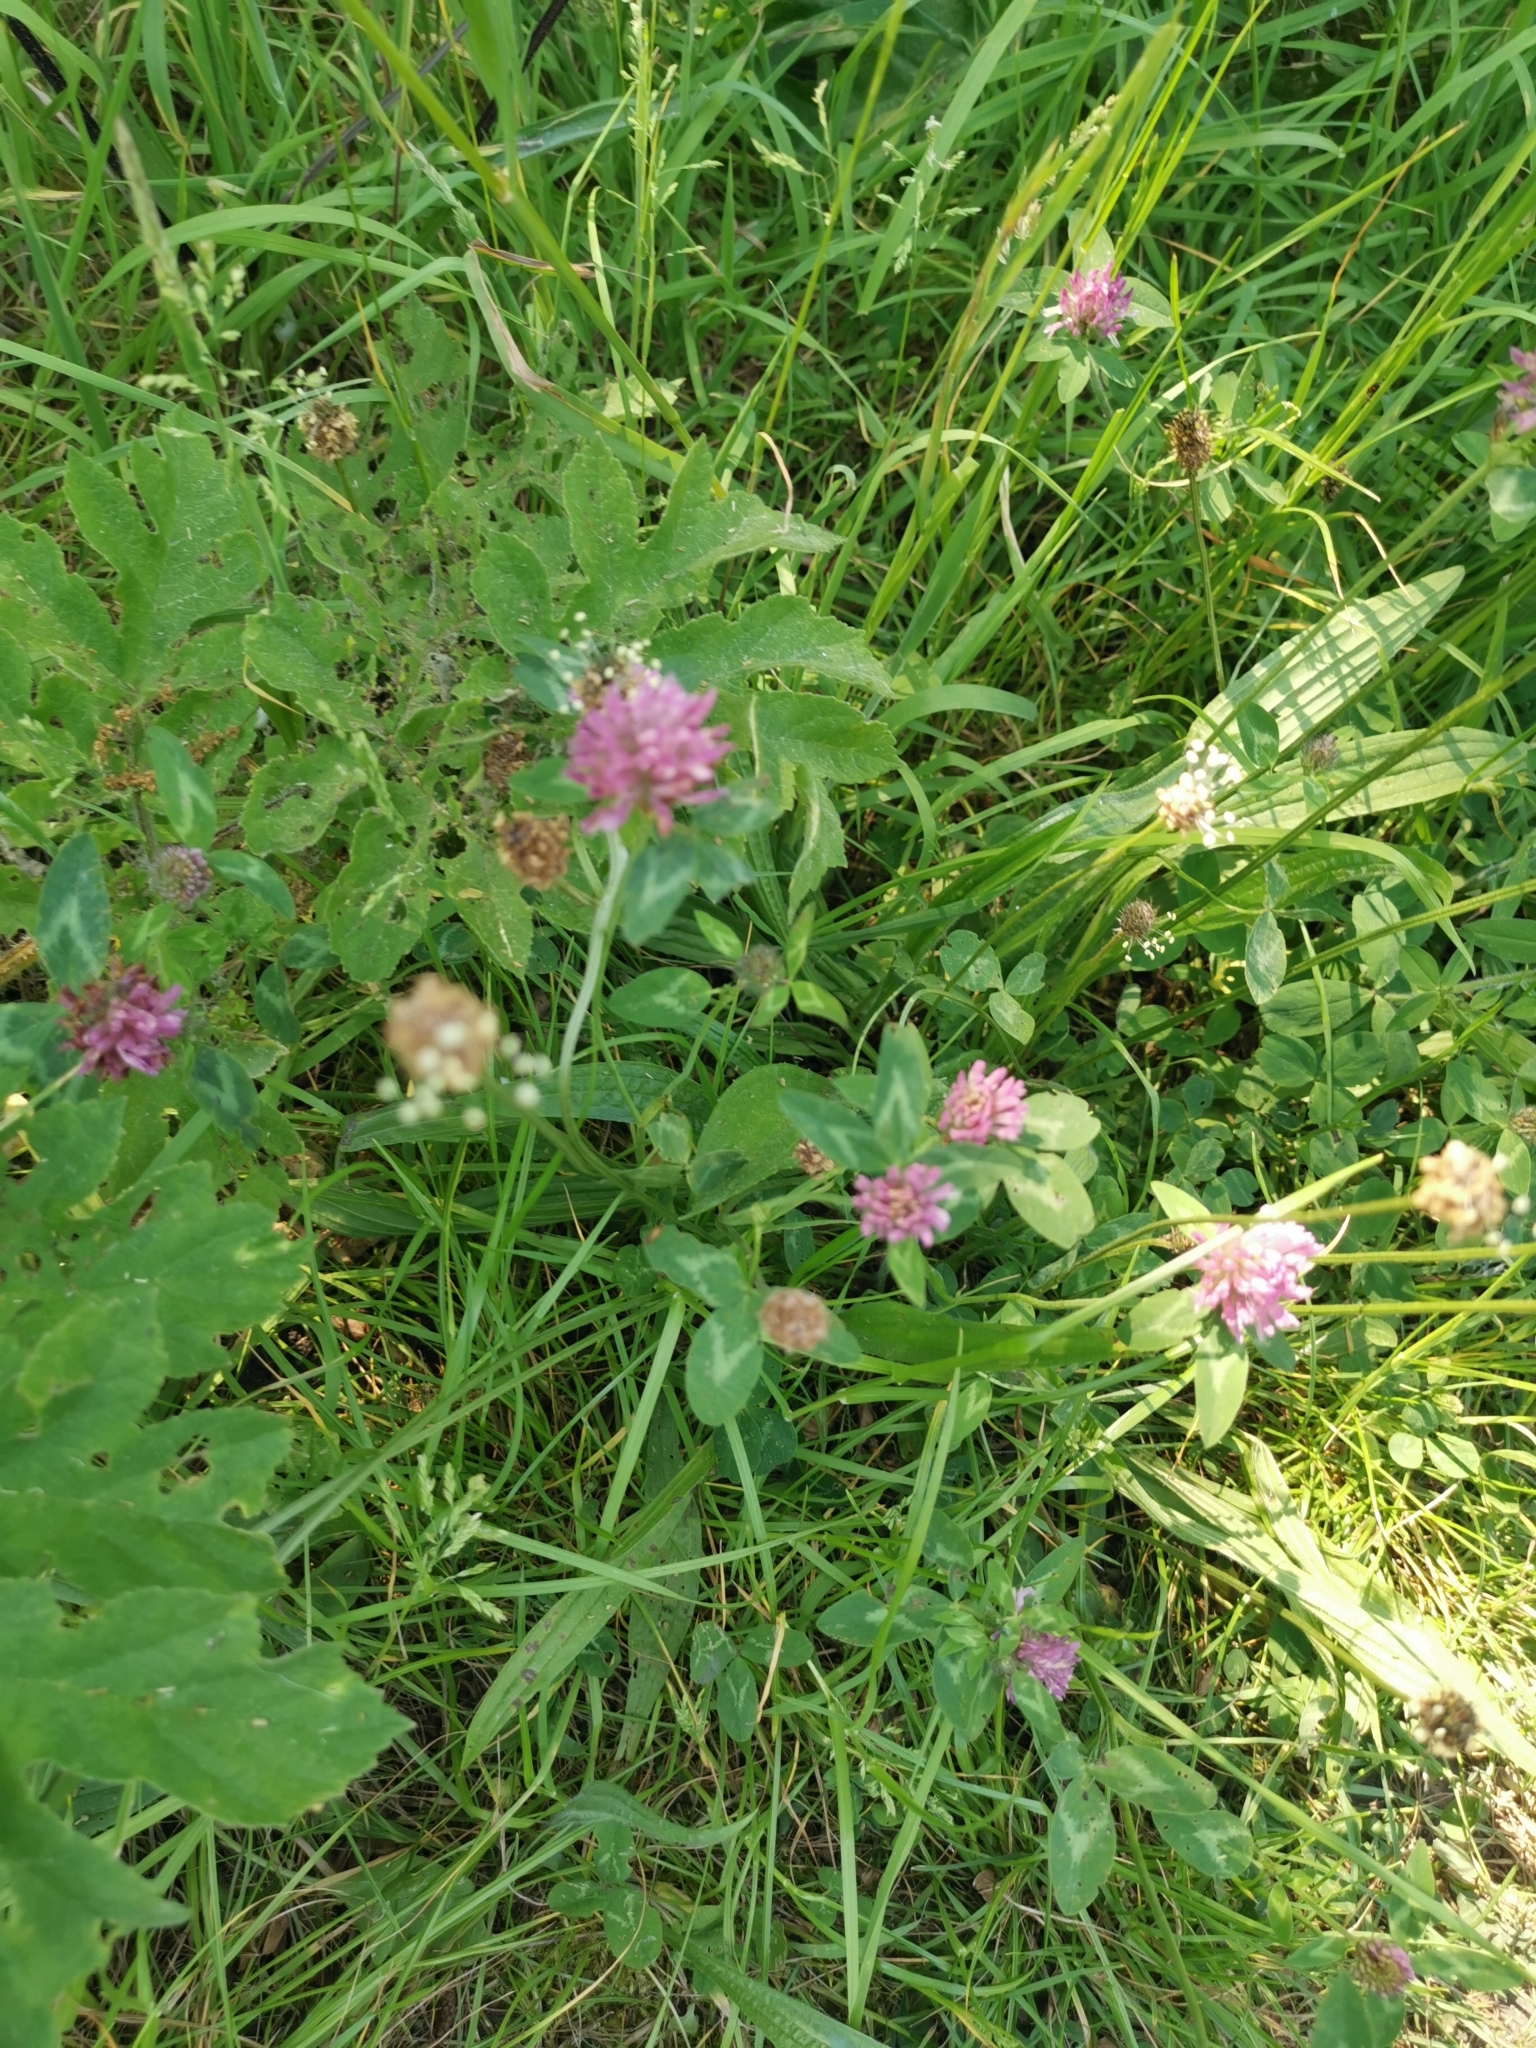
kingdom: Plantae
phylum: Tracheophyta
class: Magnoliopsida
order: Fabales
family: Fabaceae
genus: Trifolium
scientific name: Trifolium pratense
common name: Red clover
